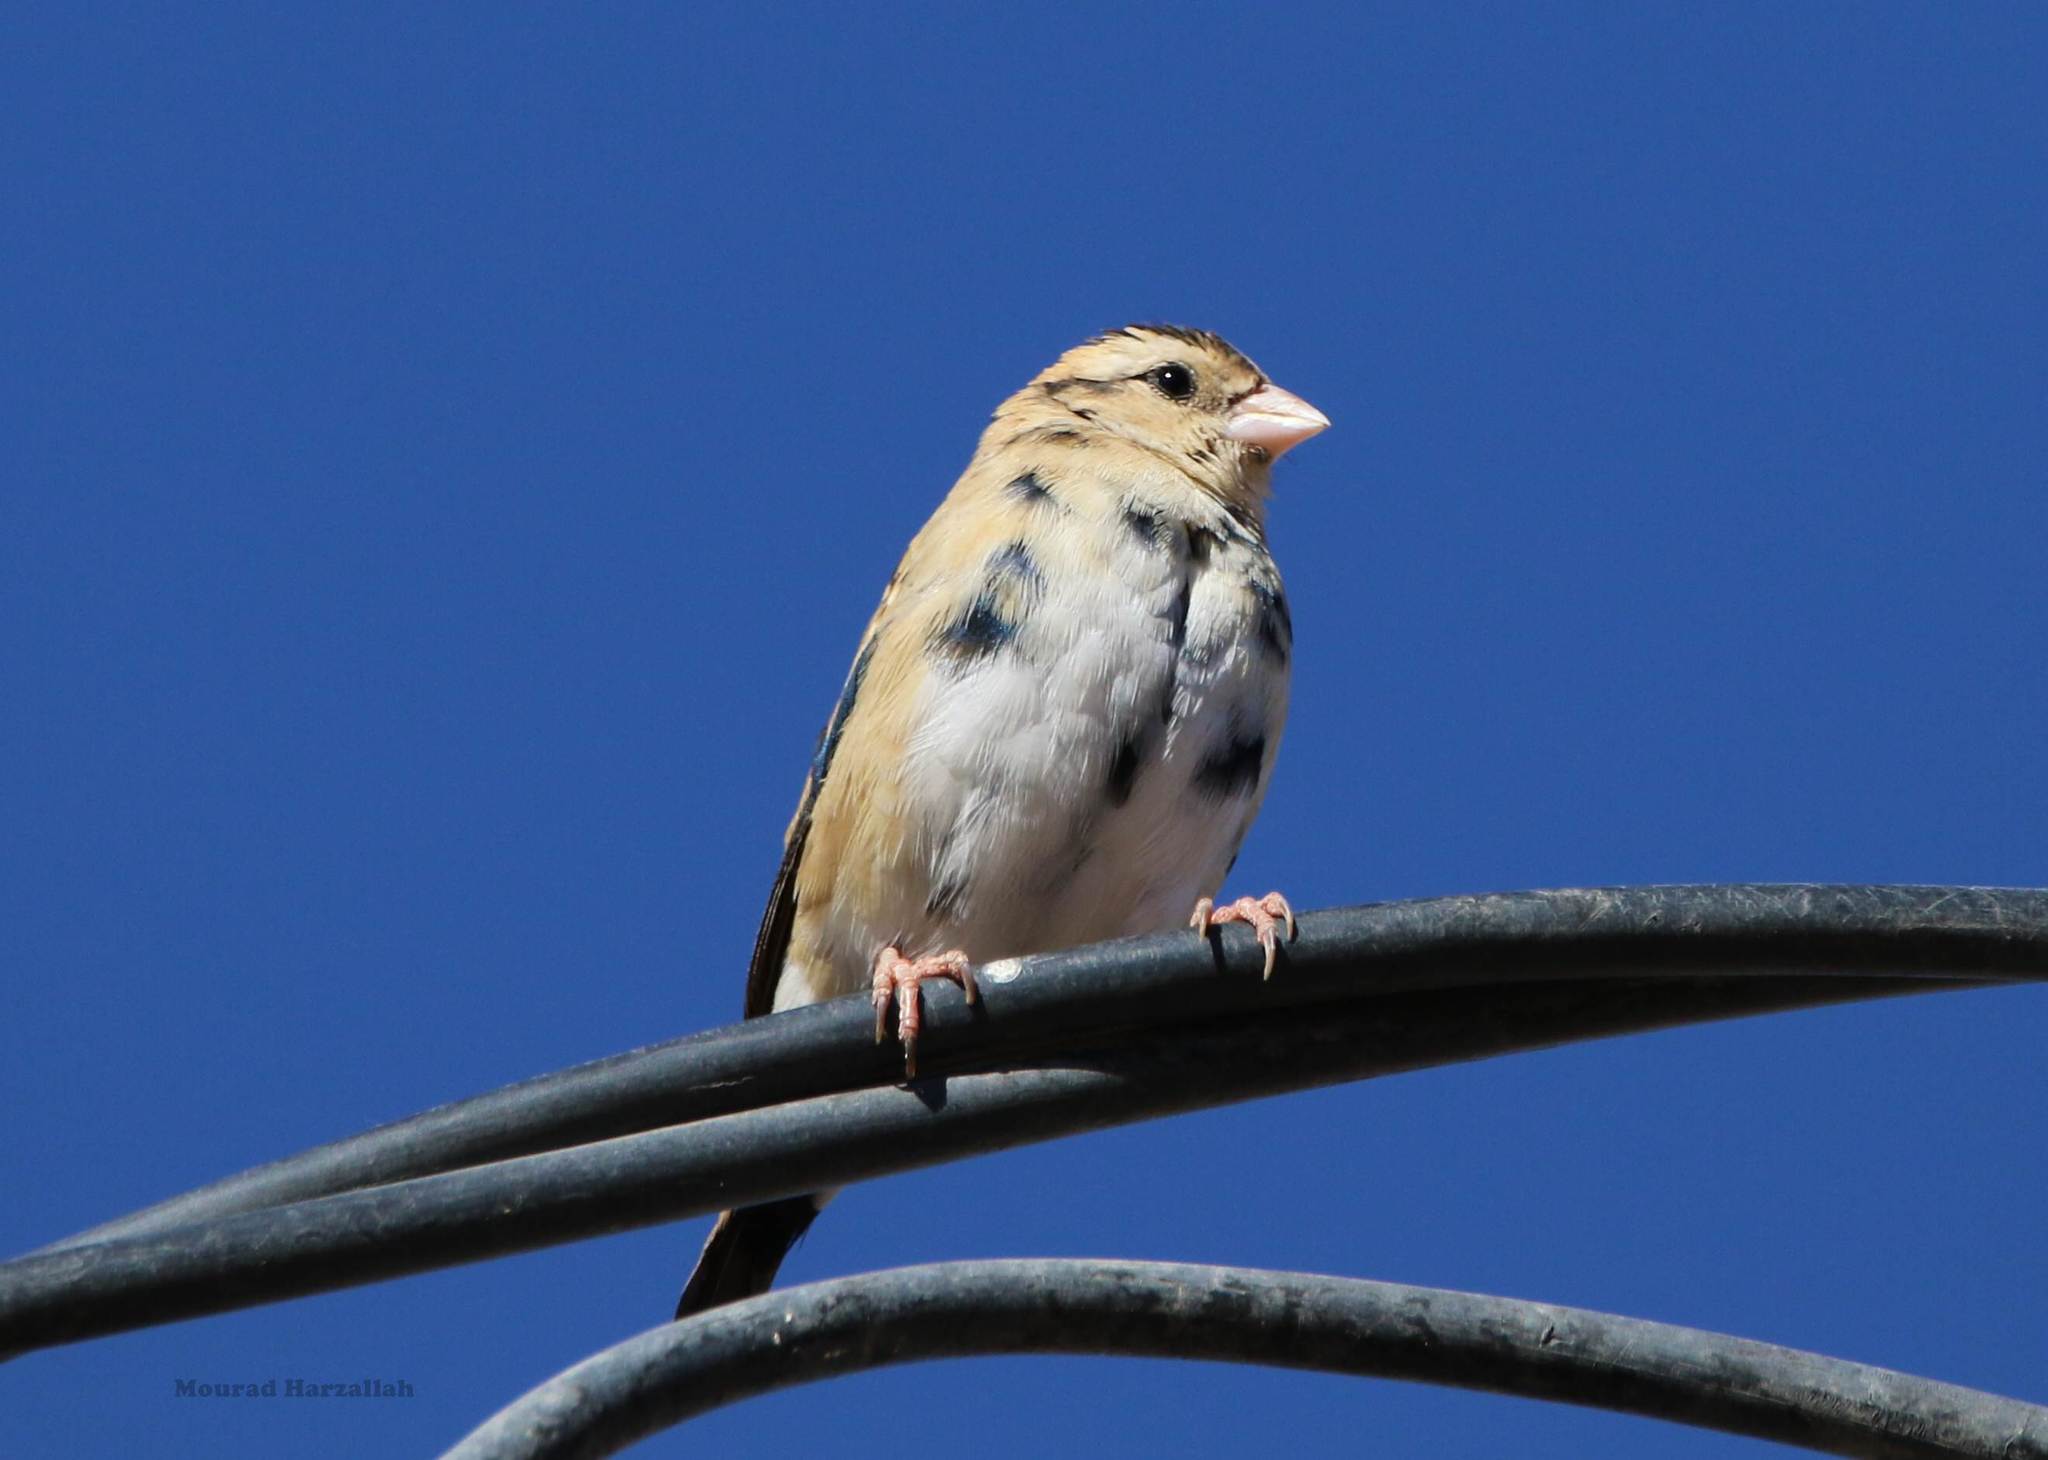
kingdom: Animalia
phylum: Chordata
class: Aves
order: Passeriformes
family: Viduidae
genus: Vidua
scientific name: Vidua chalybeata
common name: Village indigobird
